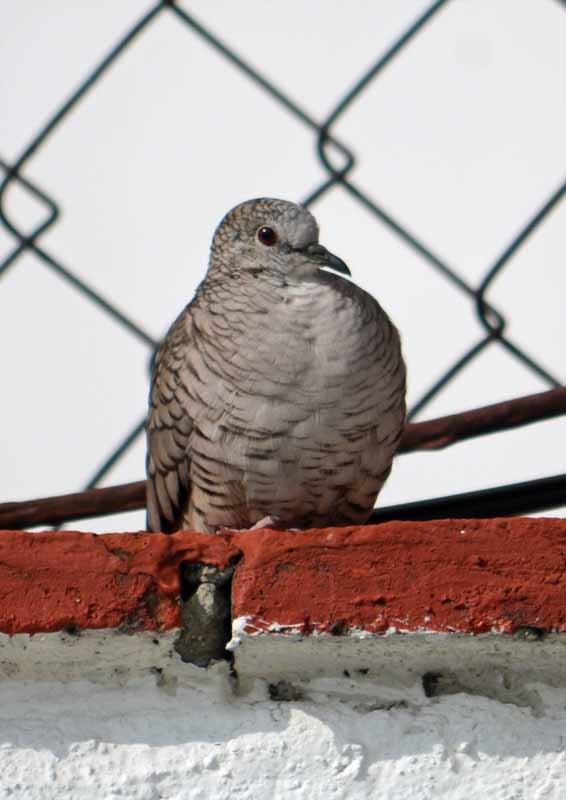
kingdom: Animalia
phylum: Chordata
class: Aves
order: Columbiformes
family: Columbidae
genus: Columbina
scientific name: Columbina inca
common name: Inca dove
